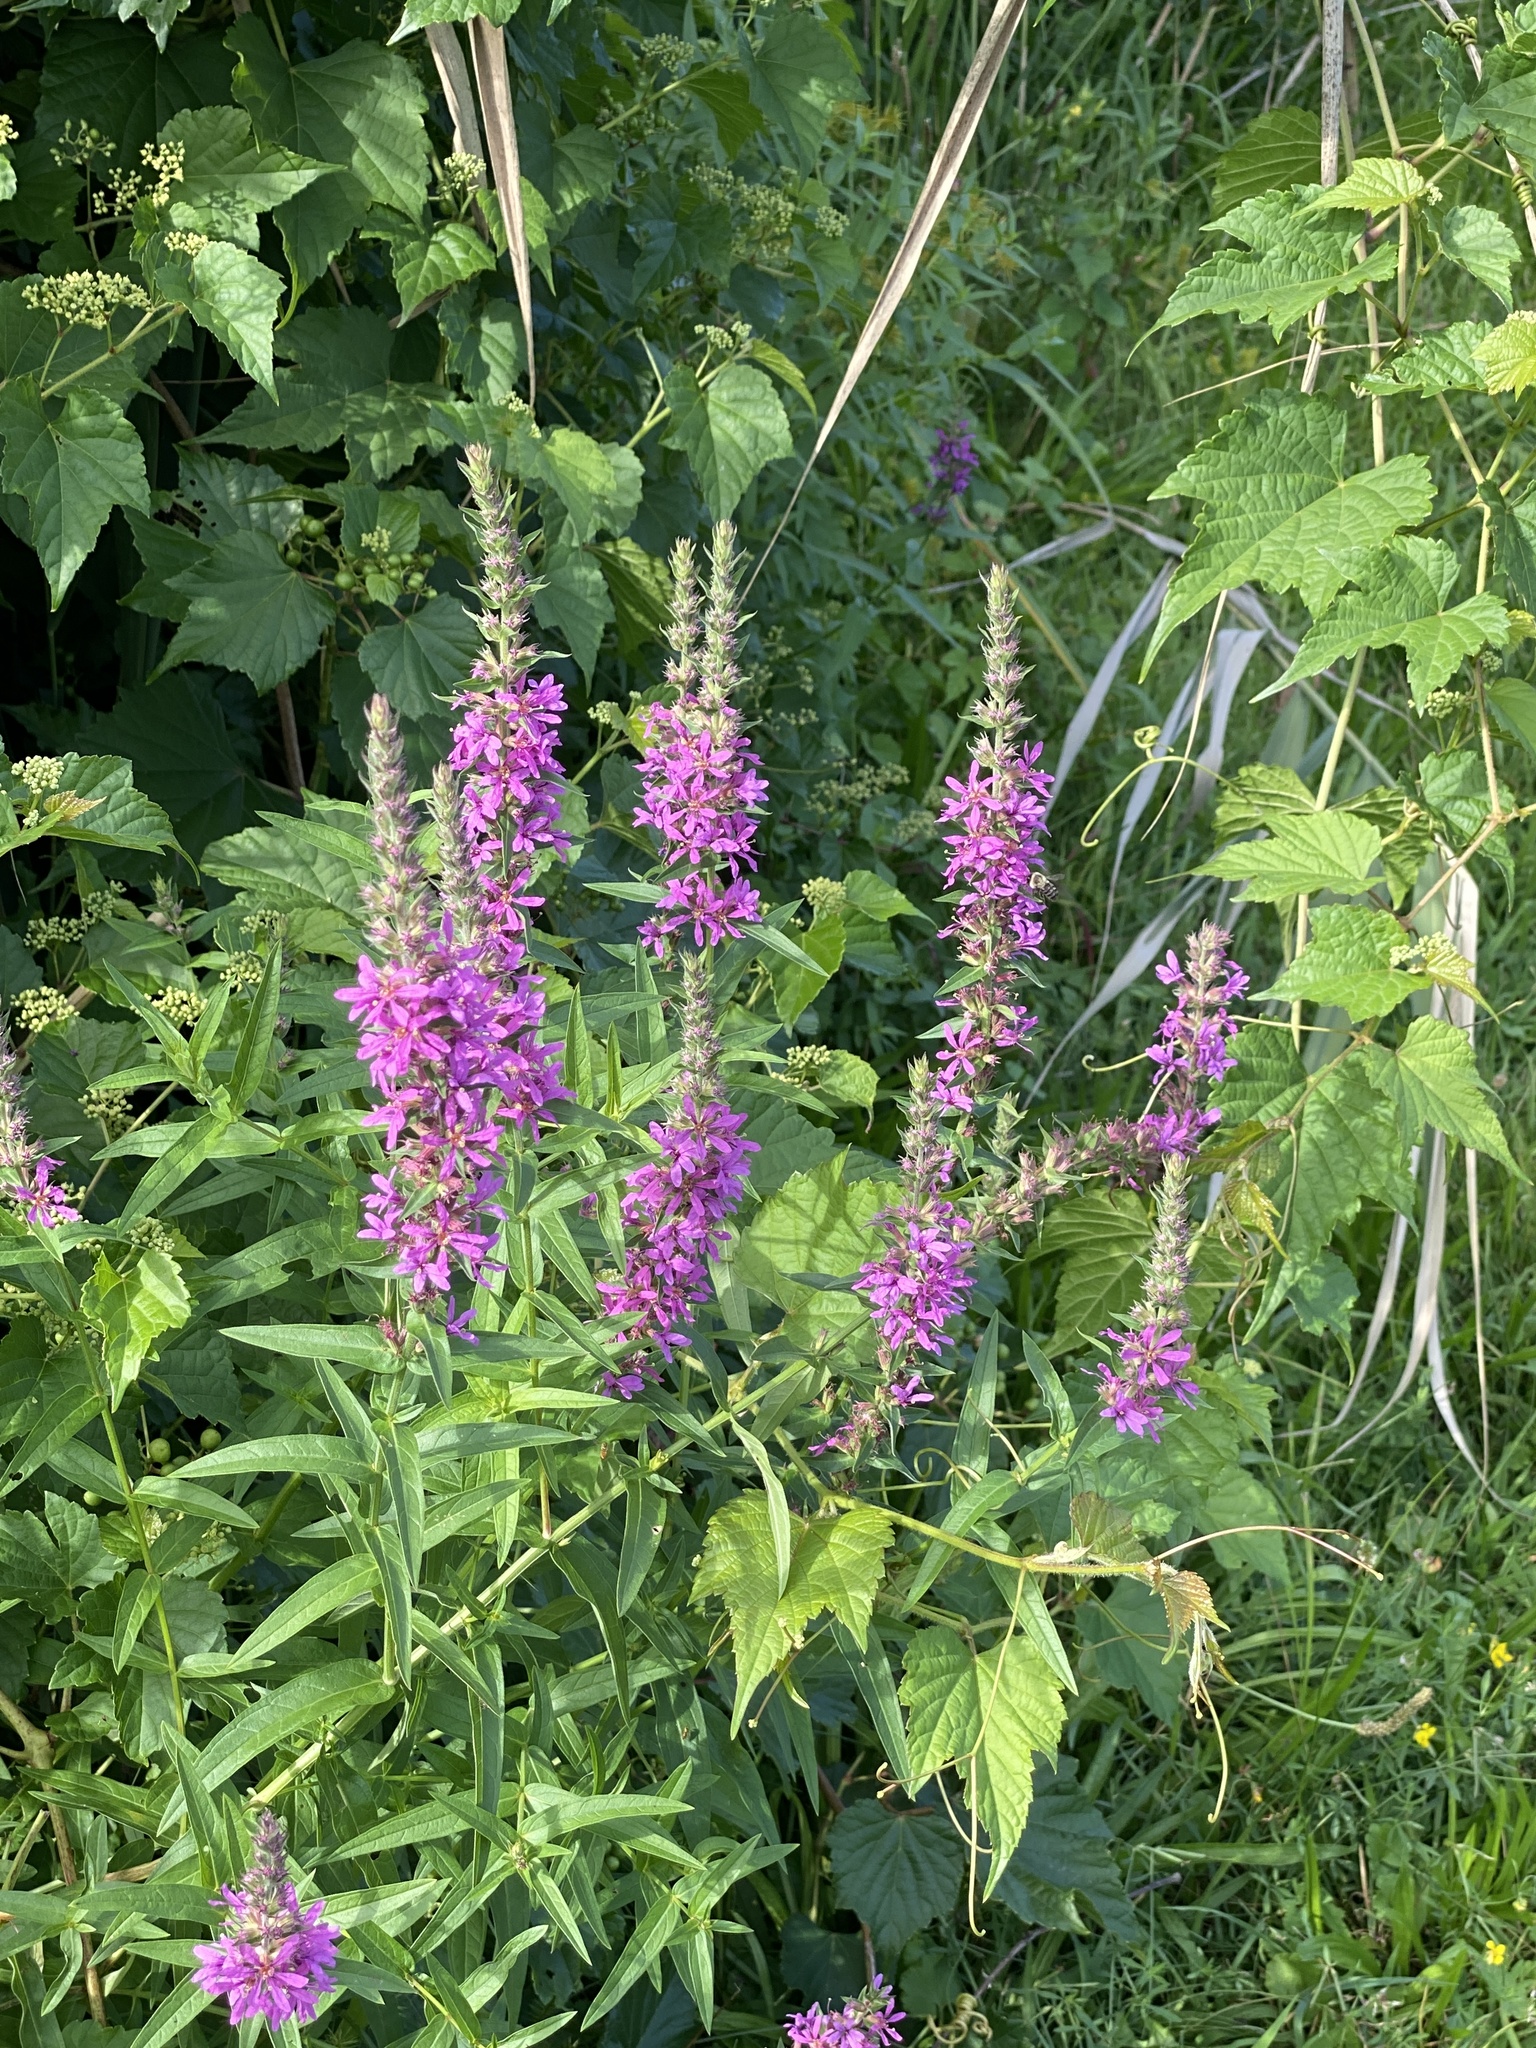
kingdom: Plantae
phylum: Tracheophyta
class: Magnoliopsida
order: Myrtales
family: Lythraceae
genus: Lythrum
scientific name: Lythrum salicaria
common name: Purple loosestrife
